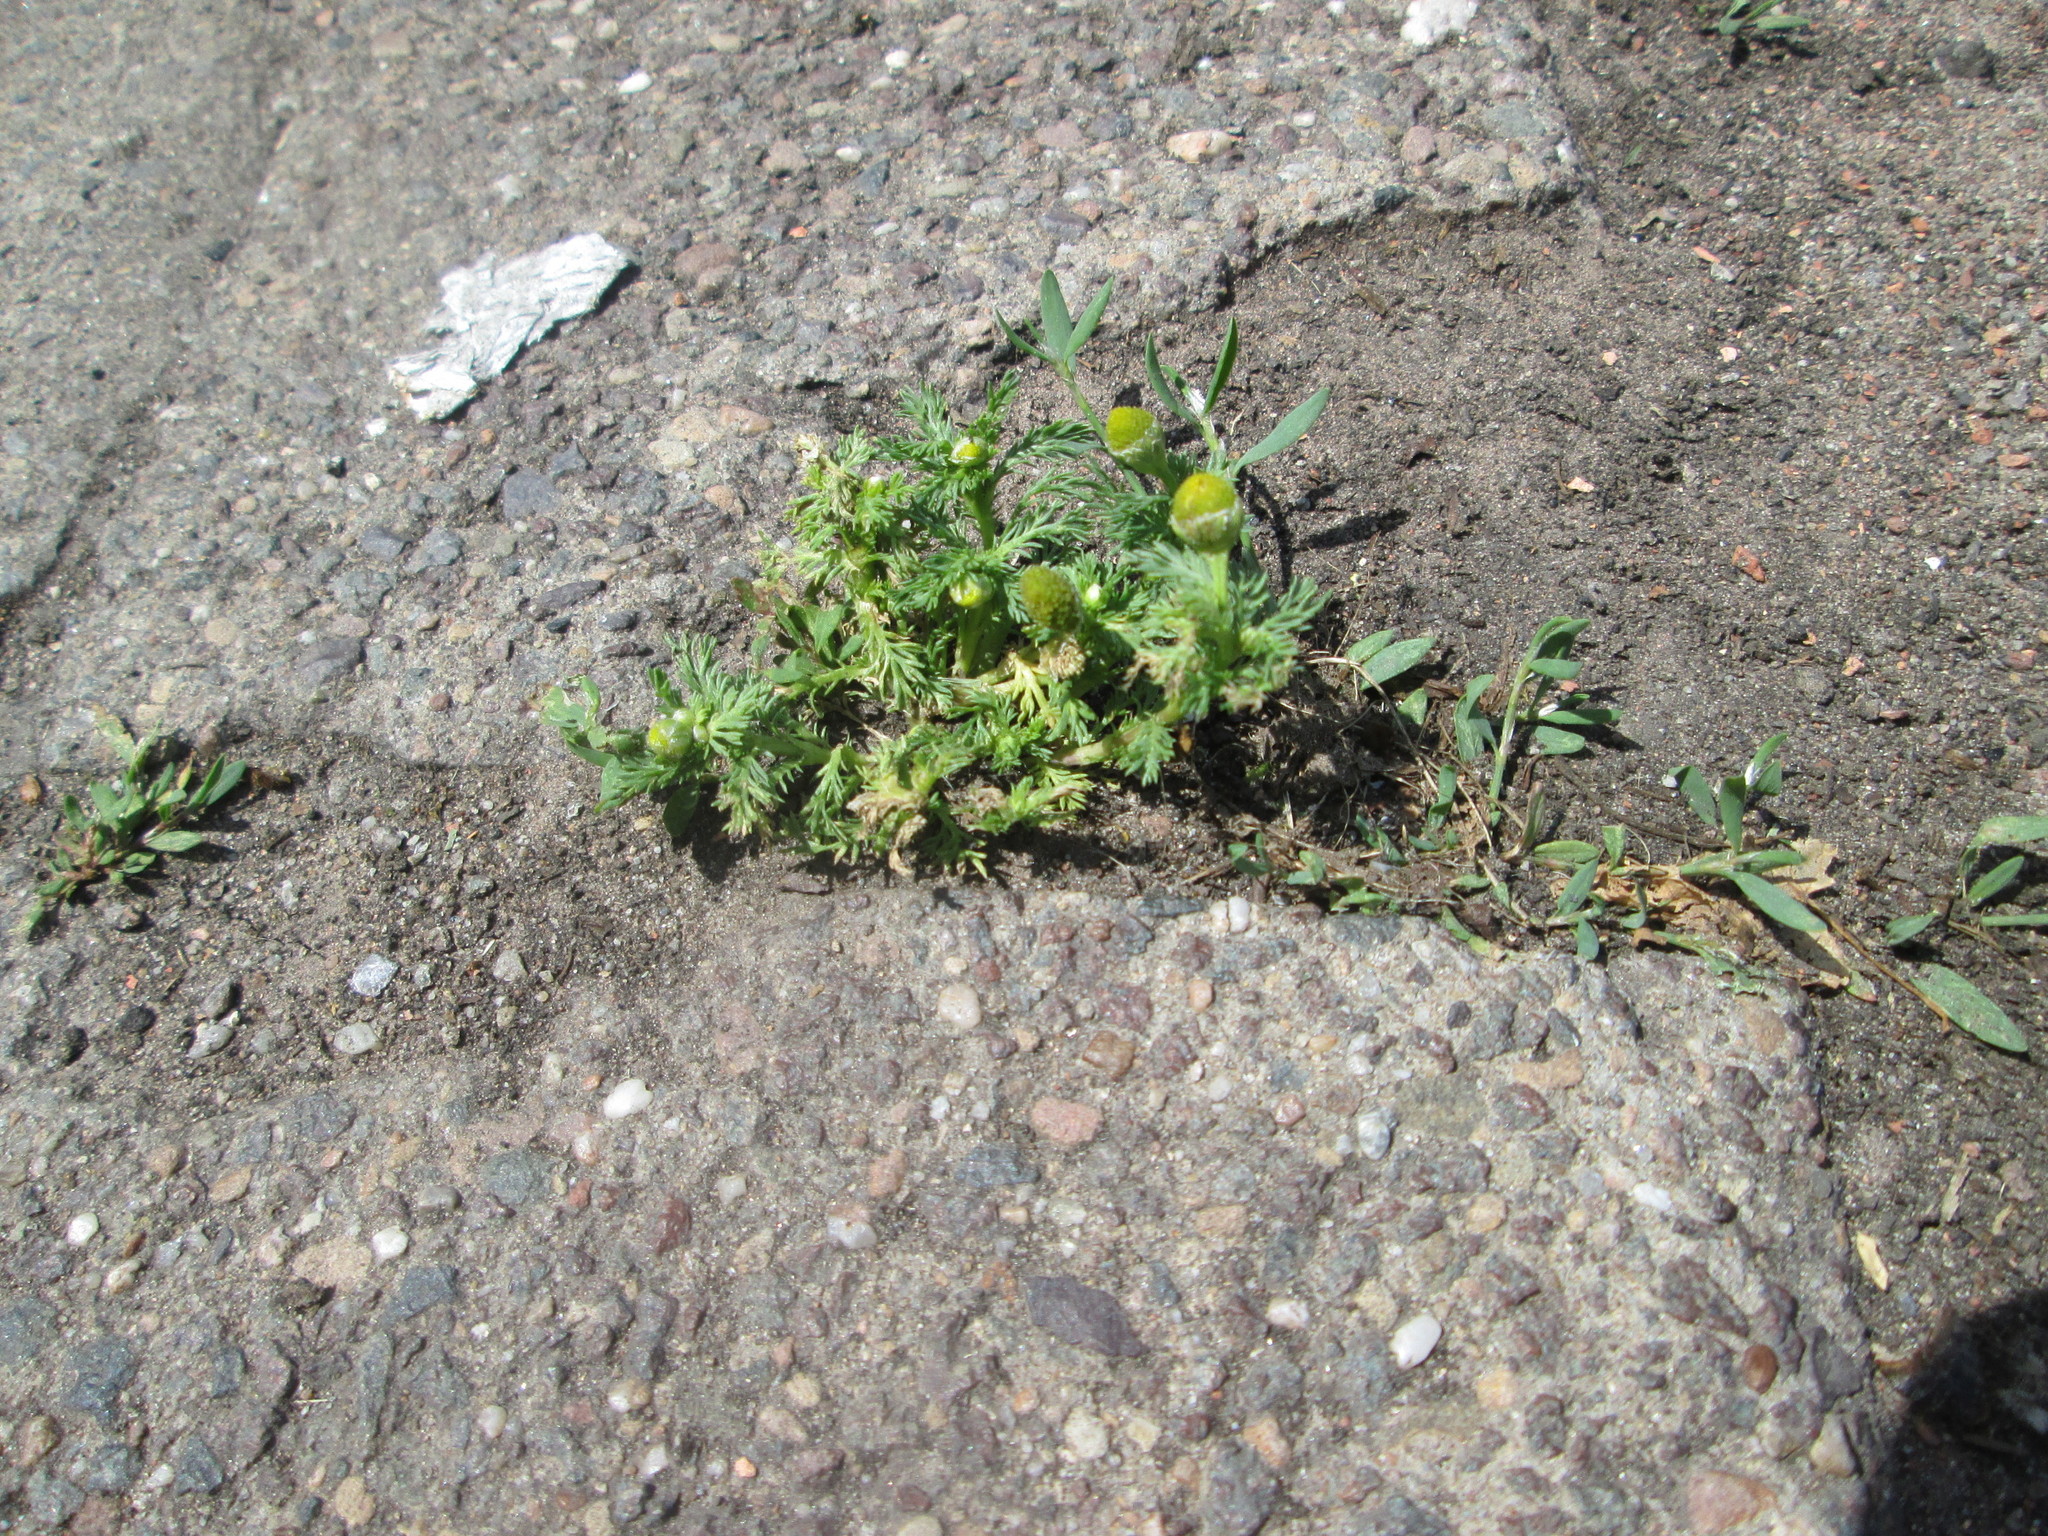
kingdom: Plantae
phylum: Tracheophyta
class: Magnoliopsida
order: Asterales
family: Asteraceae
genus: Matricaria
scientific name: Matricaria discoidea
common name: Disc mayweed
